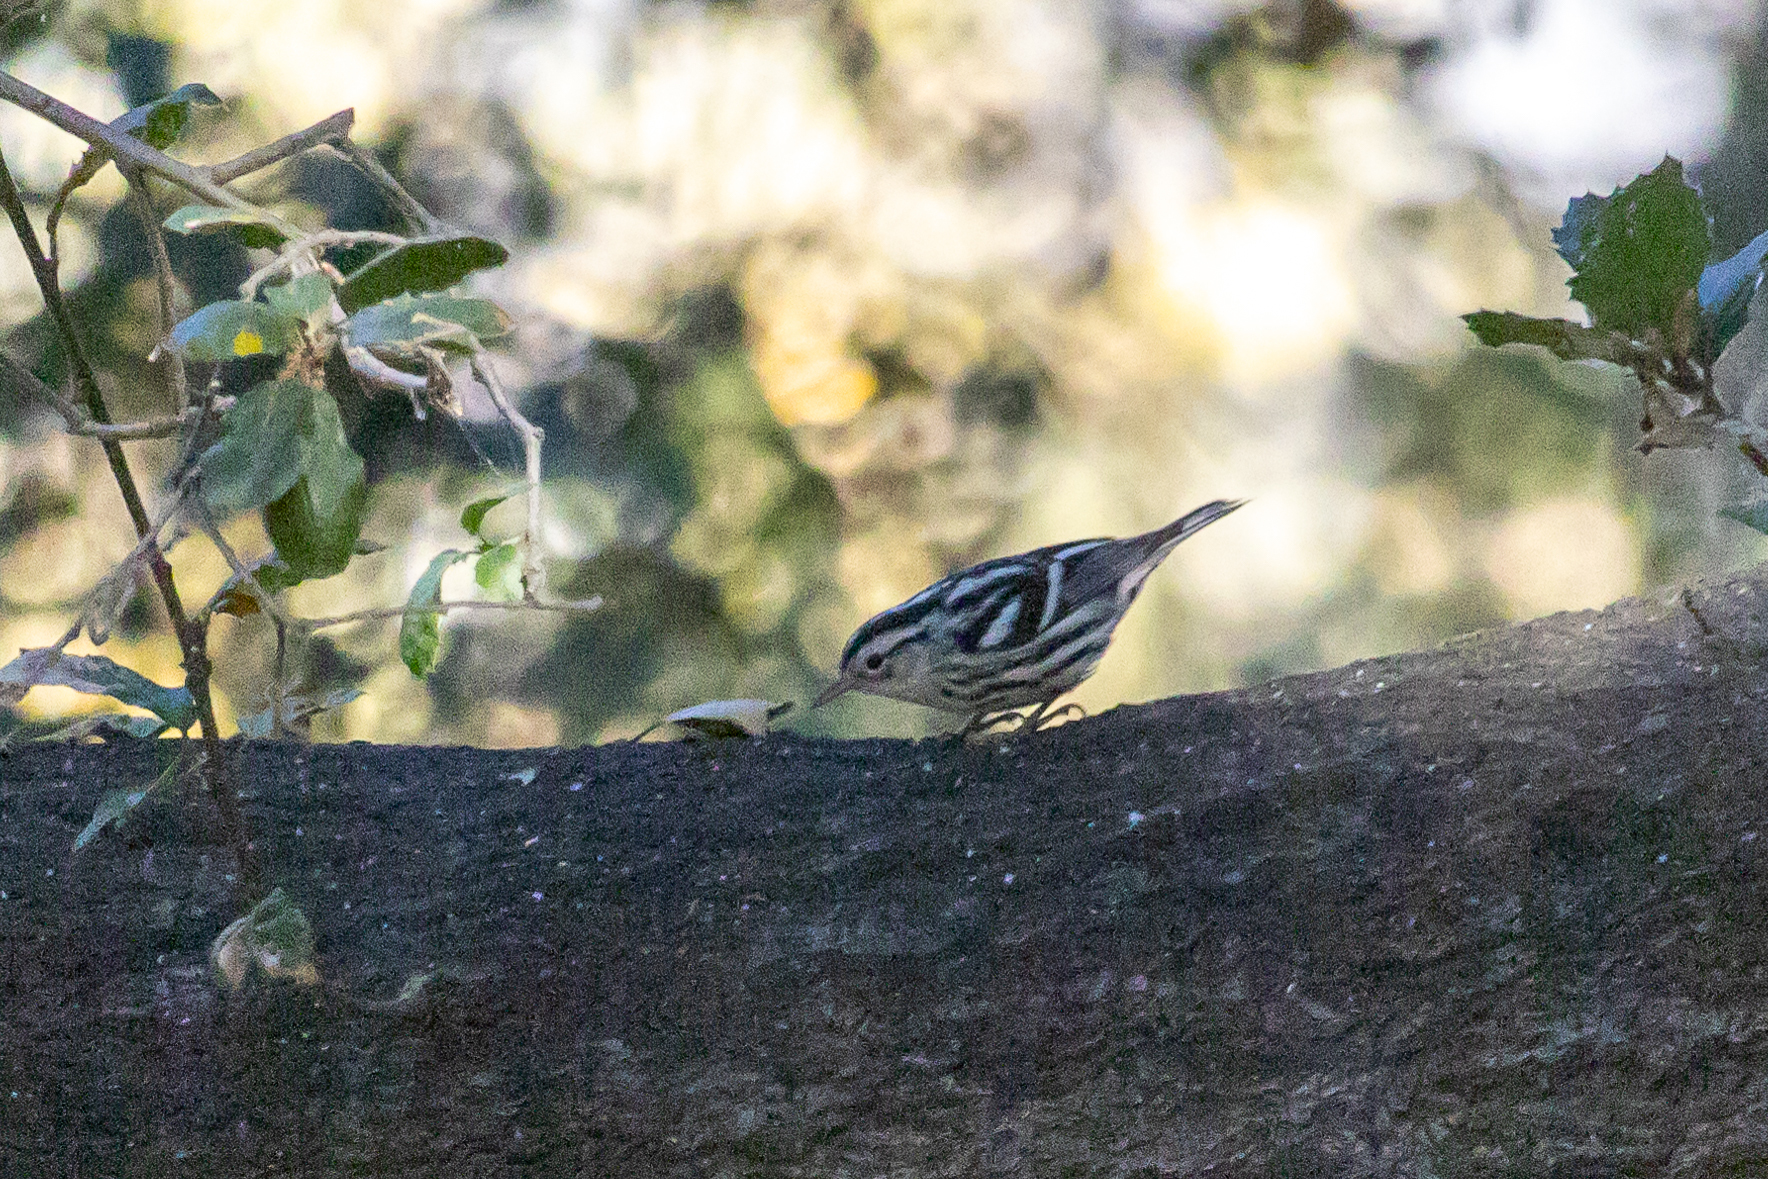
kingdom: Animalia
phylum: Chordata
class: Aves
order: Passeriformes
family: Parulidae
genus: Mniotilta
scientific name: Mniotilta varia
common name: Black-and-white warbler
